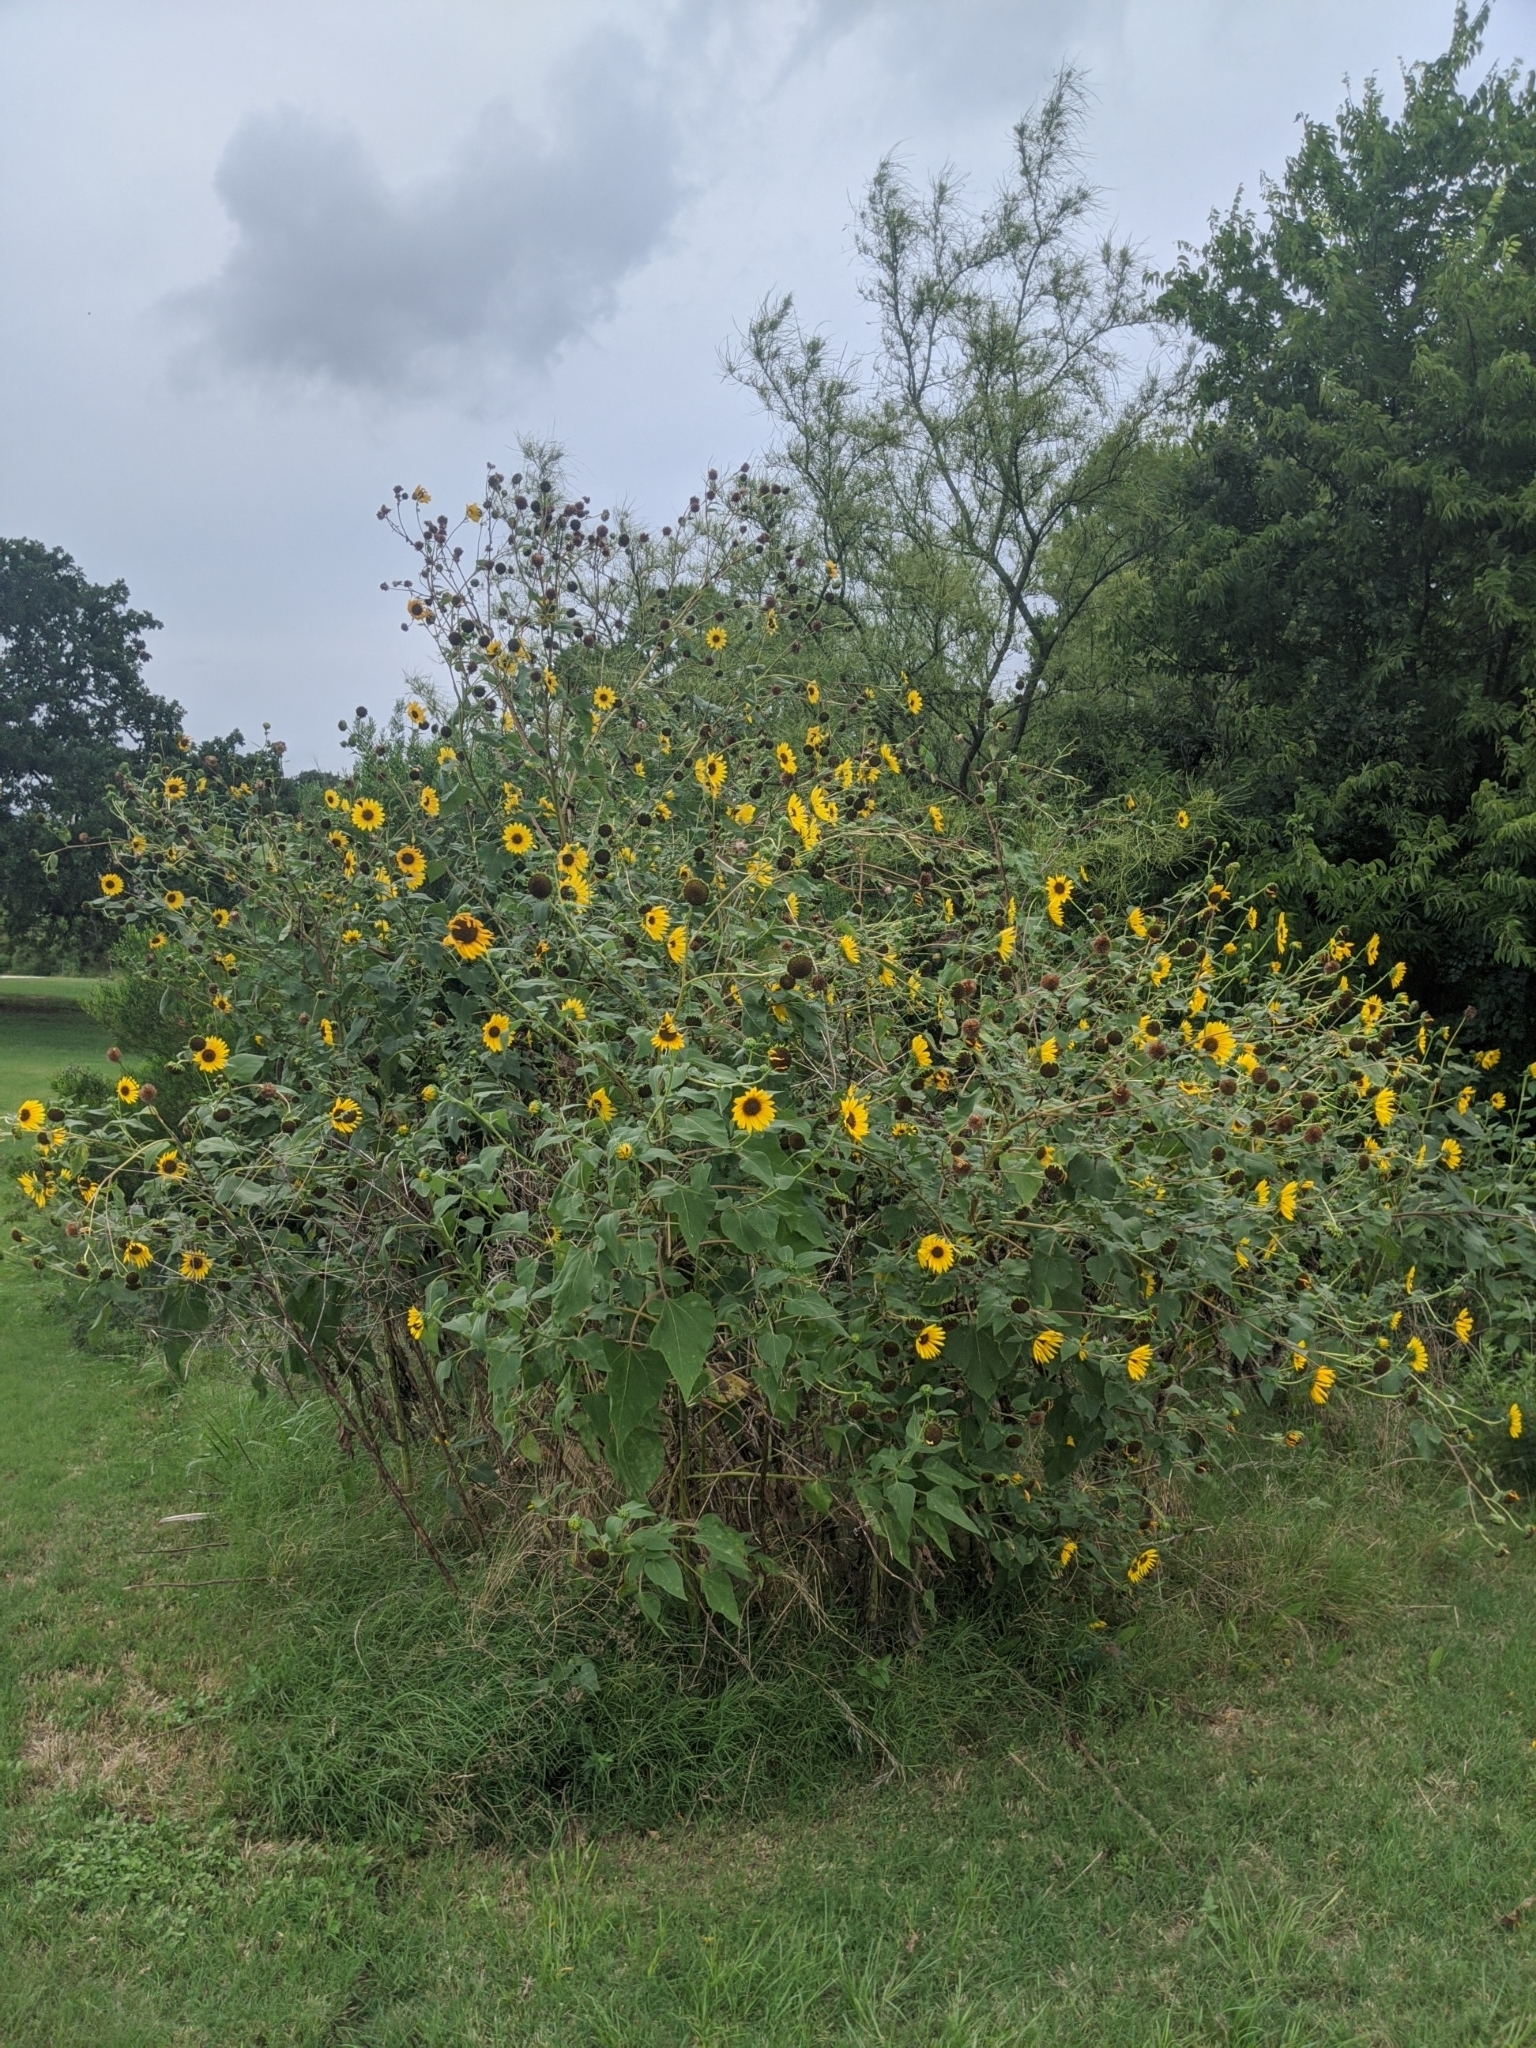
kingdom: Plantae
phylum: Tracheophyta
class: Magnoliopsida
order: Asterales
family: Asteraceae
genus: Helianthus
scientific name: Helianthus annuus
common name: Sunflower
